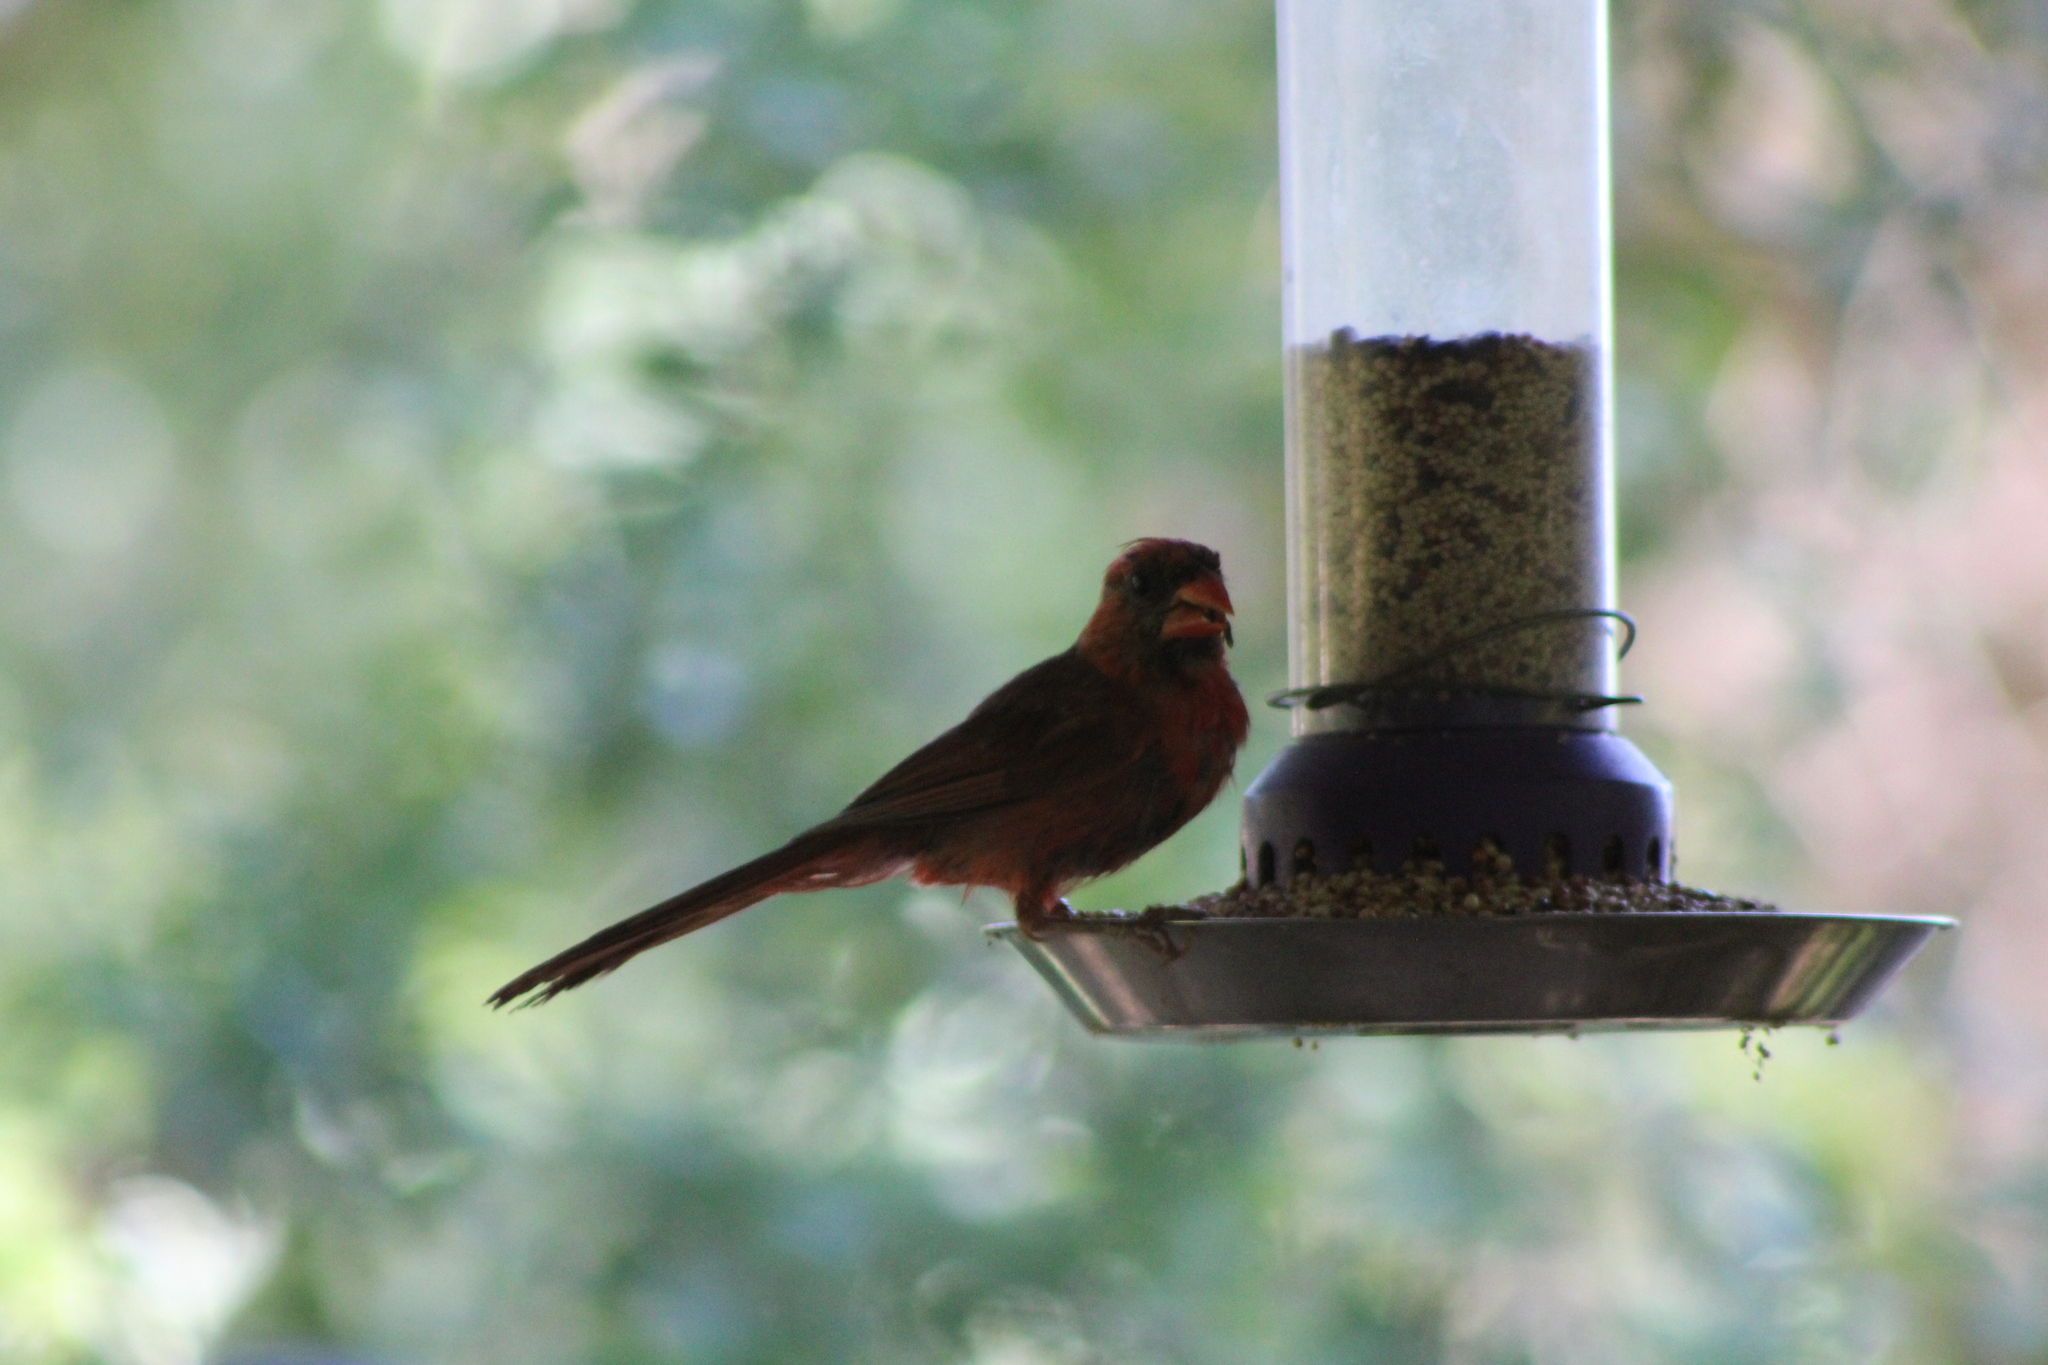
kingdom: Animalia
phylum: Chordata
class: Aves
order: Passeriformes
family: Cardinalidae
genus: Cardinalis
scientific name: Cardinalis cardinalis
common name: Northern cardinal
